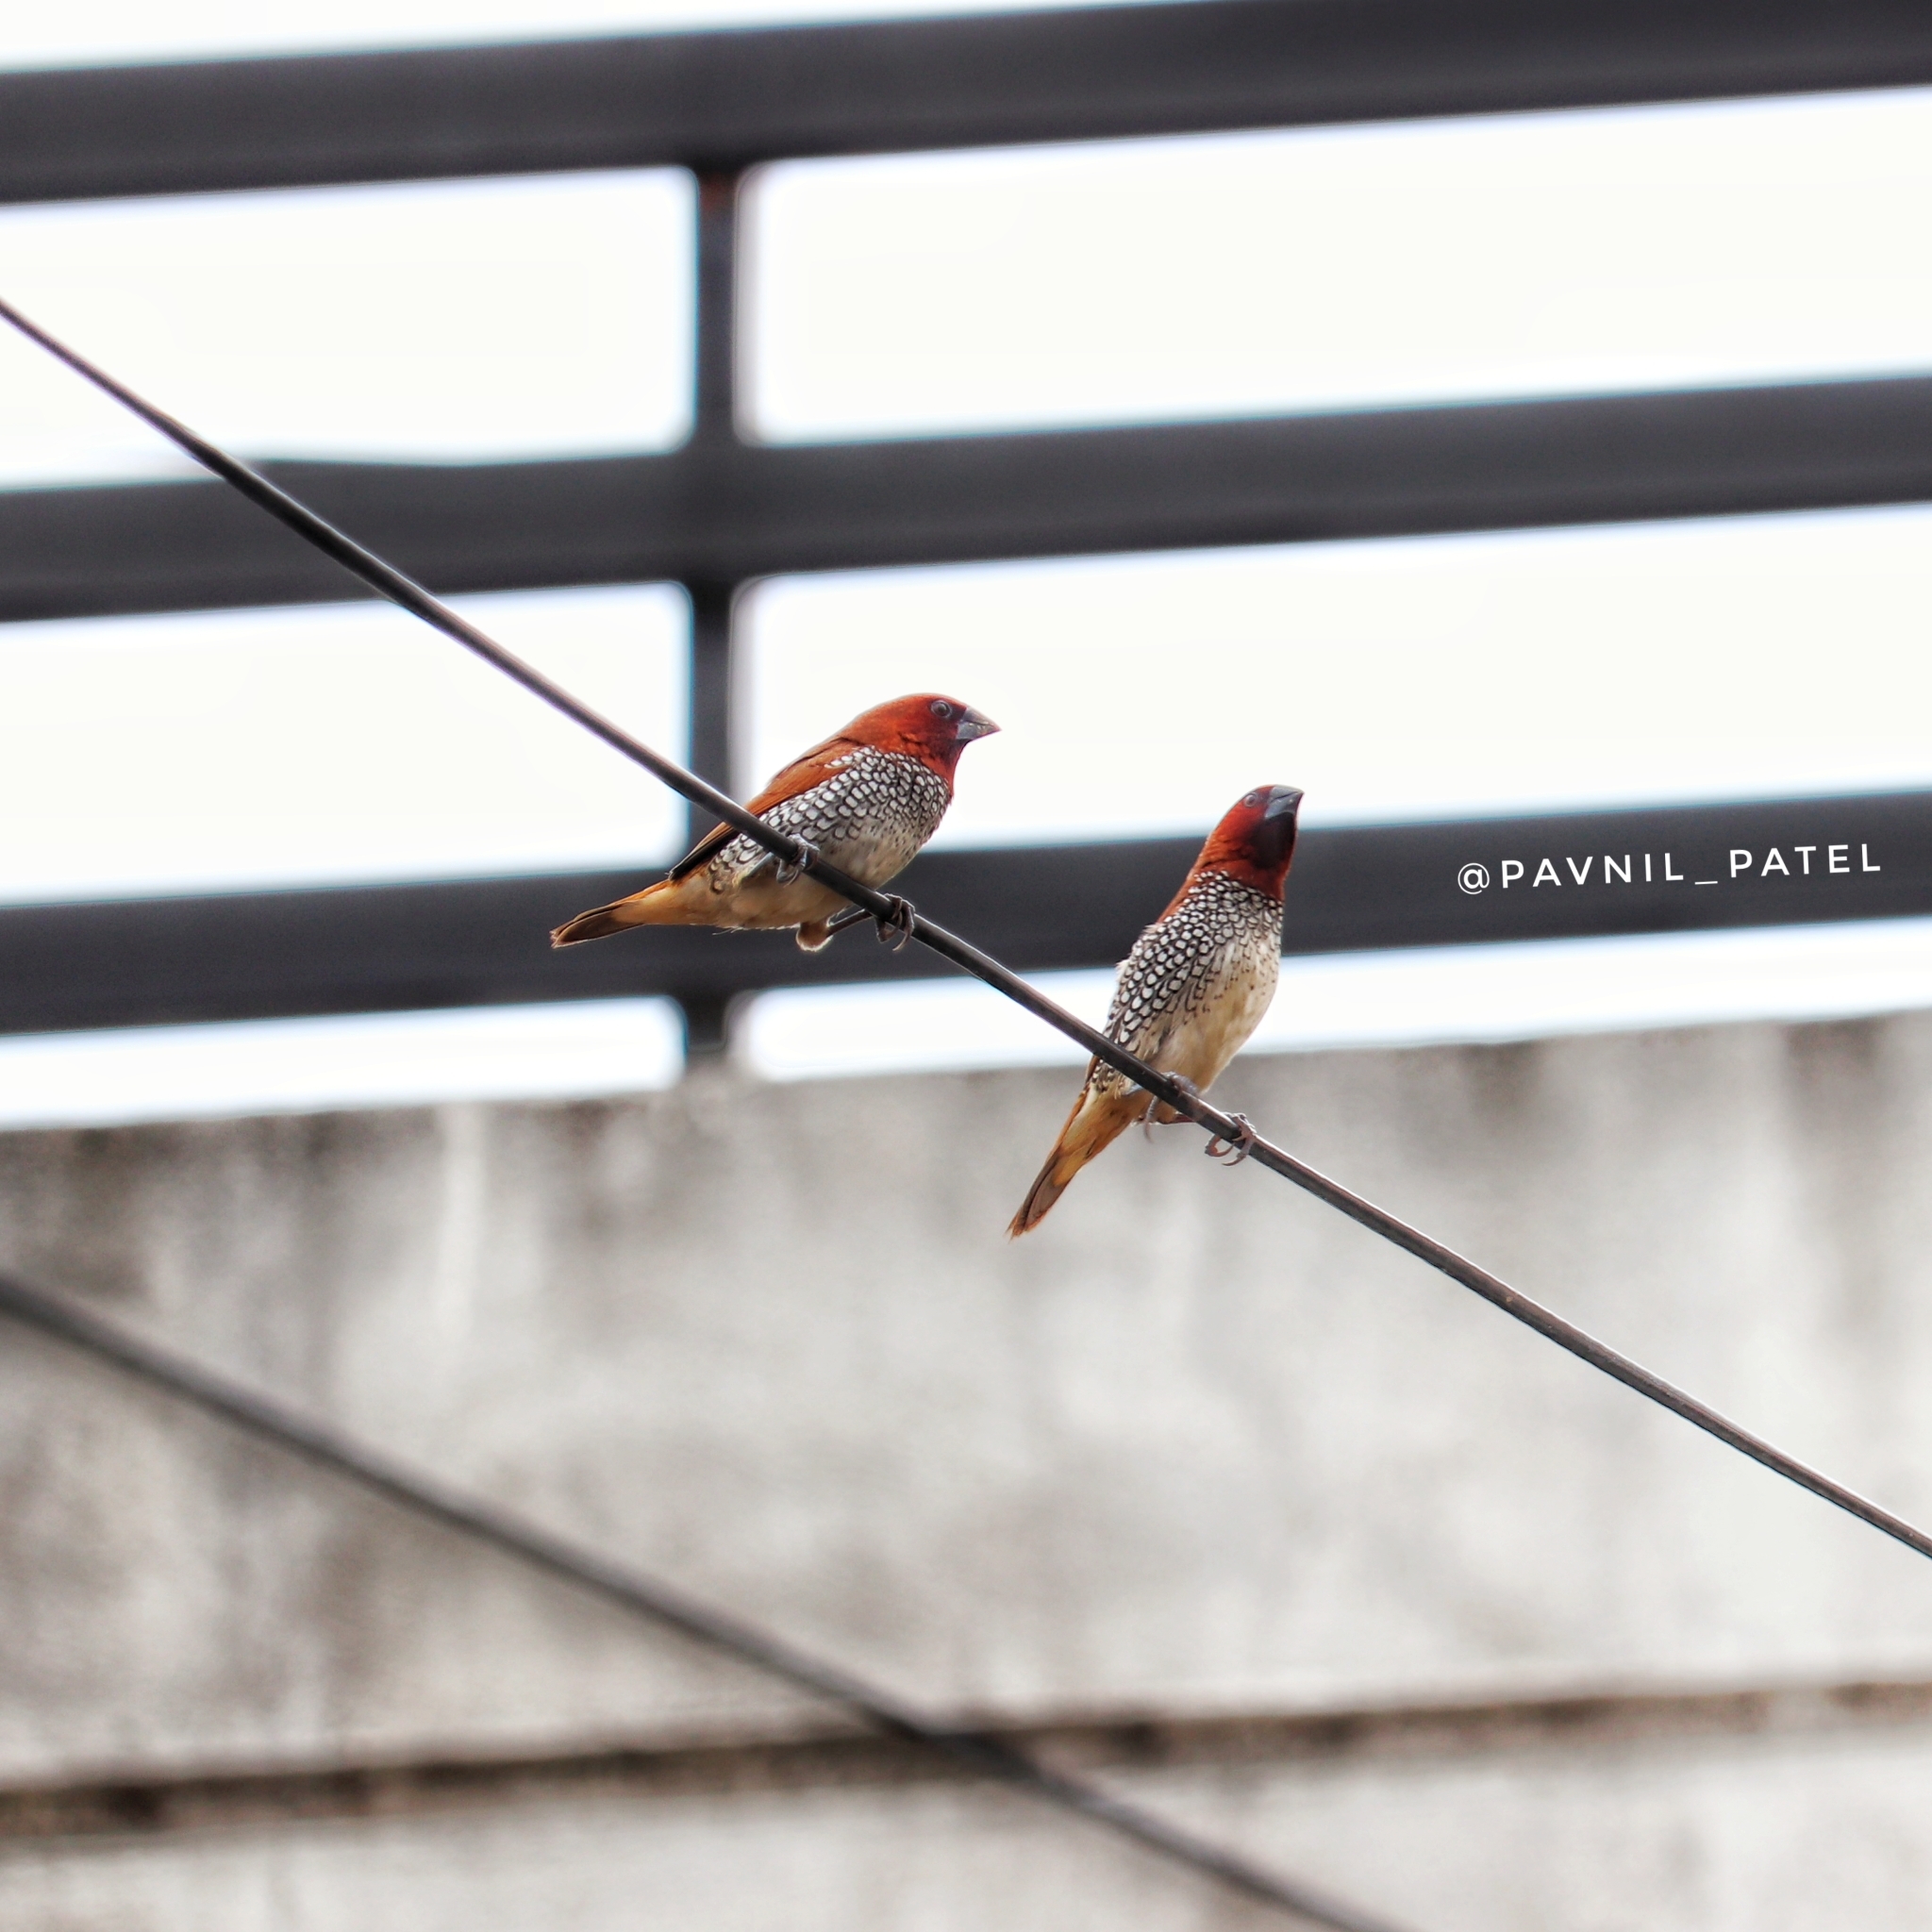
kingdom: Animalia
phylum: Chordata
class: Aves
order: Passeriformes
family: Estrildidae
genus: Lonchura
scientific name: Lonchura punctulata
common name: Scaly-breasted munia
